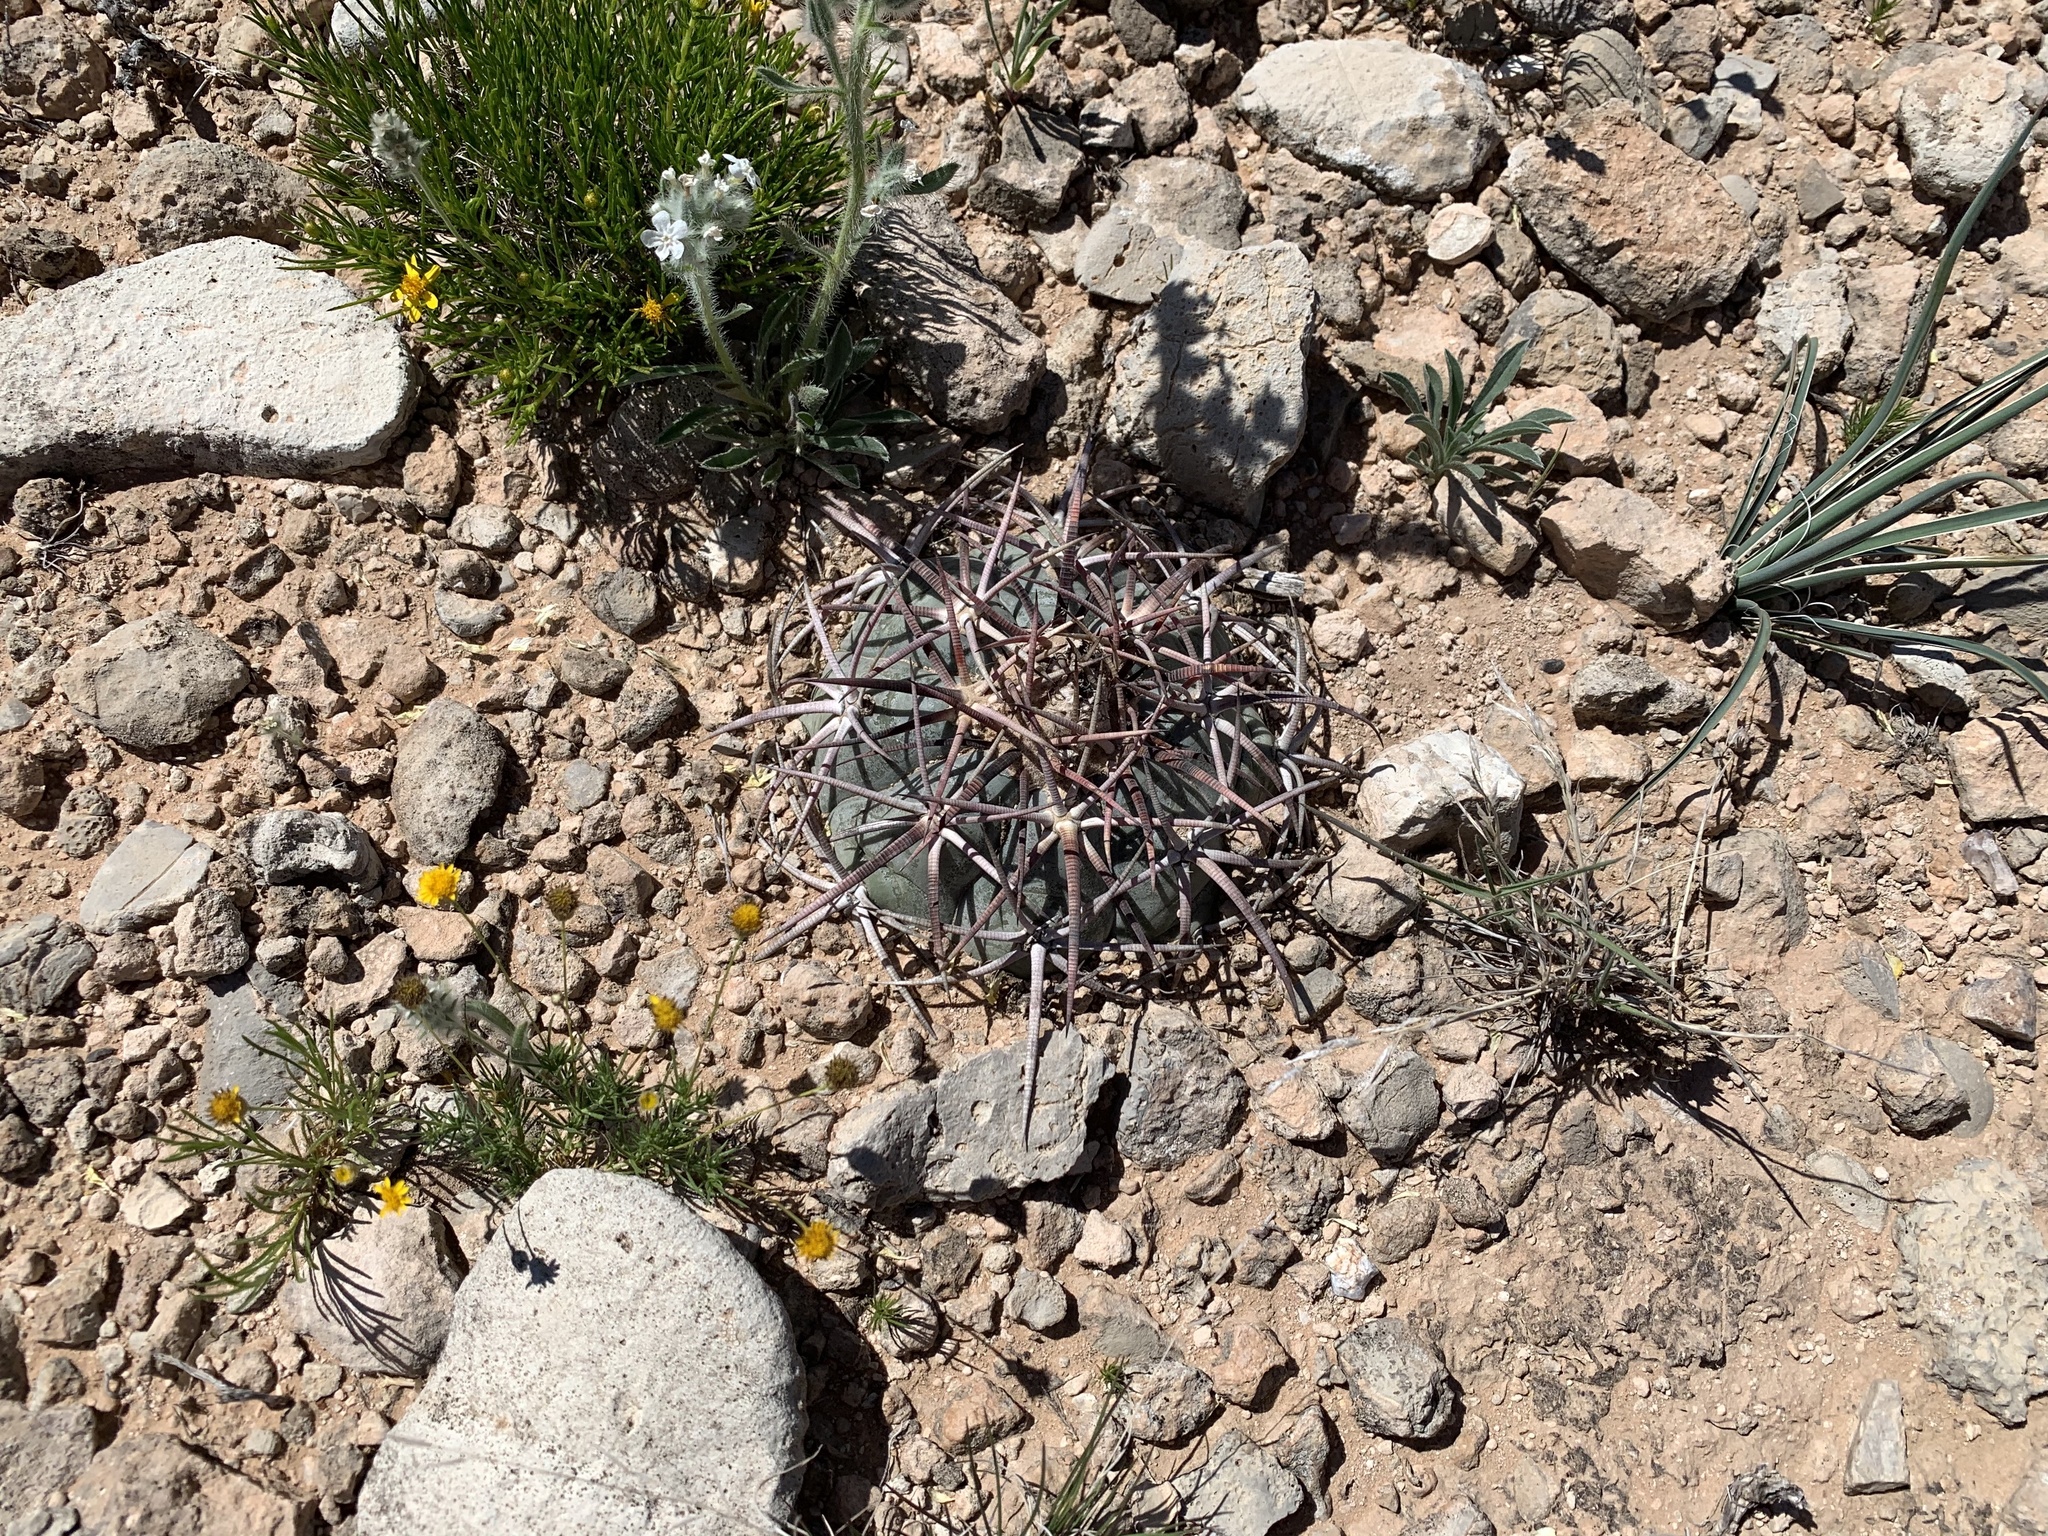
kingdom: Plantae
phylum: Tracheophyta
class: Magnoliopsida
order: Caryophyllales
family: Cactaceae
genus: Echinocactus
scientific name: Echinocactus horizonthalonius
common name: Devilshead
